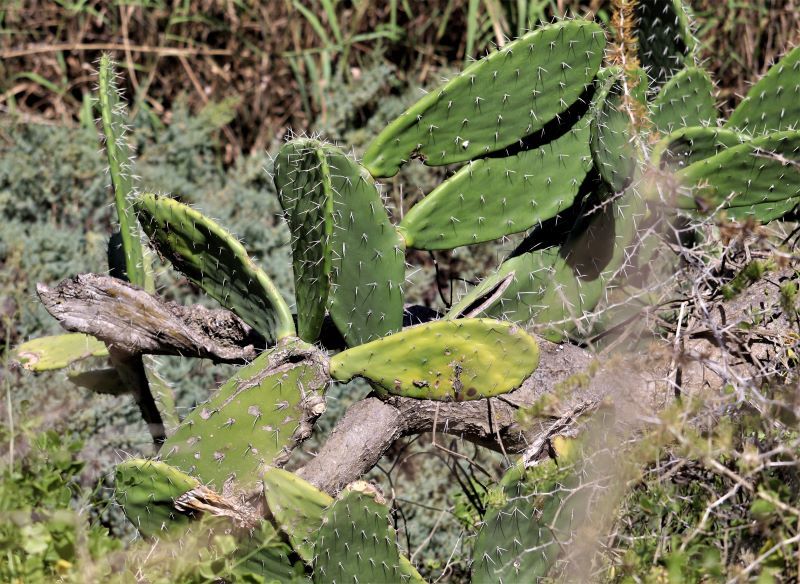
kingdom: Plantae
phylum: Tracheophyta
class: Magnoliopsida
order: Caryophyllales
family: Cactaceae
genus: Opuntia
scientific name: Opuntia ficus-indica
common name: Barbary fig
